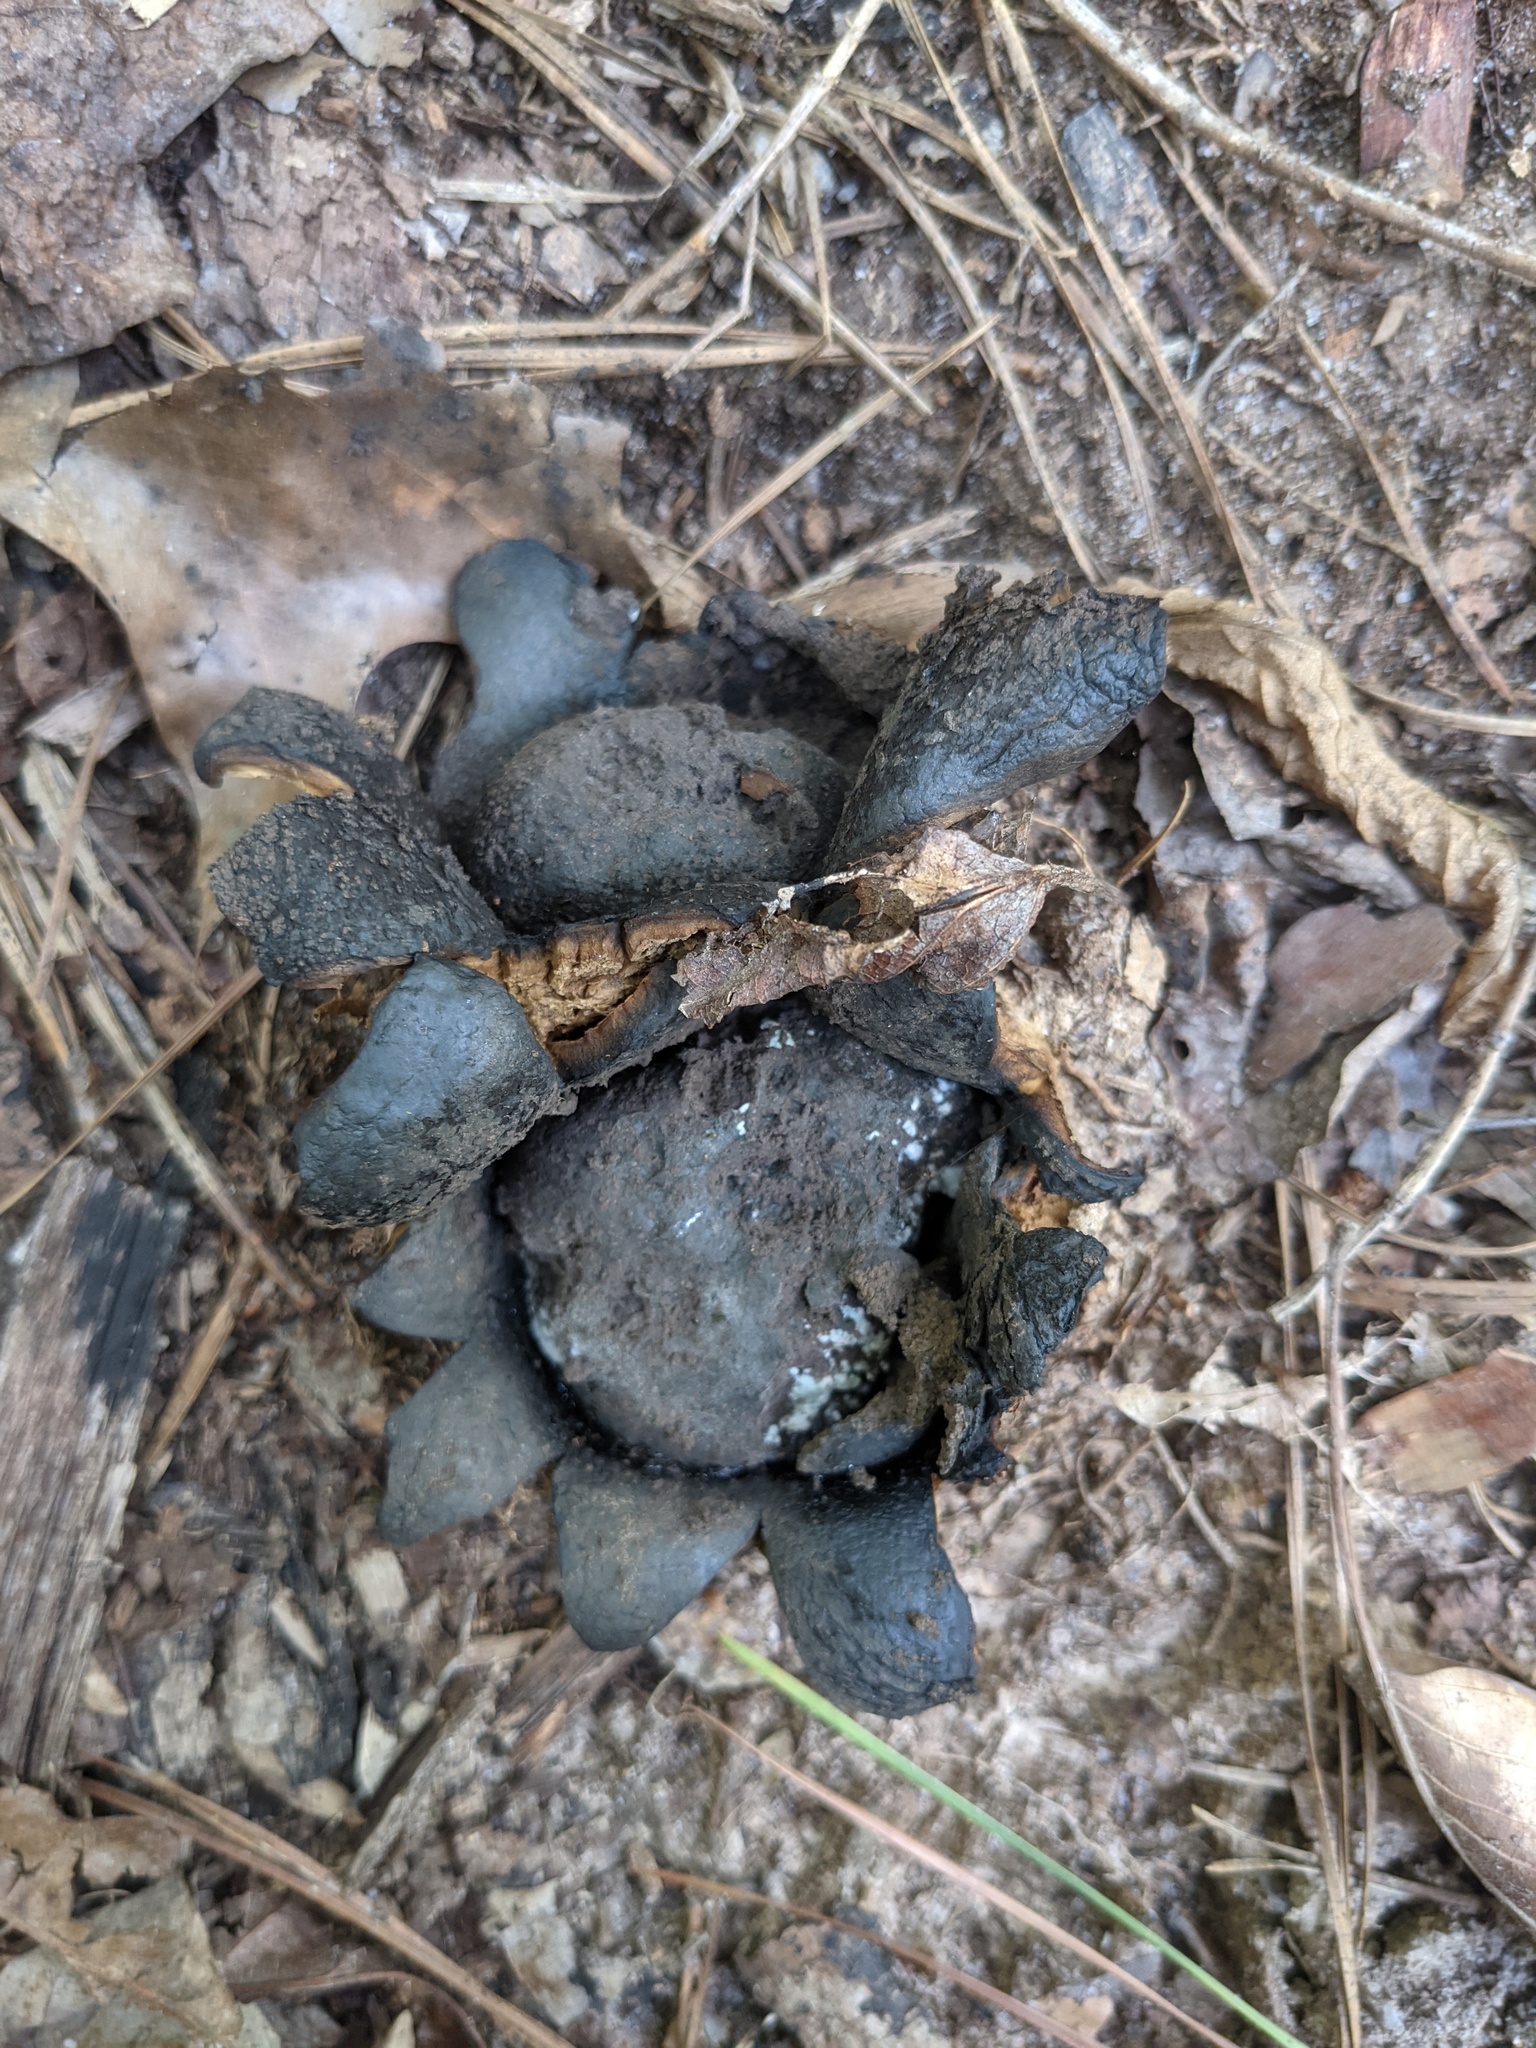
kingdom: Fungi
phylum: Basidiomycota
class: Agaricomycetes
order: Boletales
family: Sclerodermataceae
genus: Scleroderma
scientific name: Scleroderma polyrhizum
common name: Many-rooted earthball
